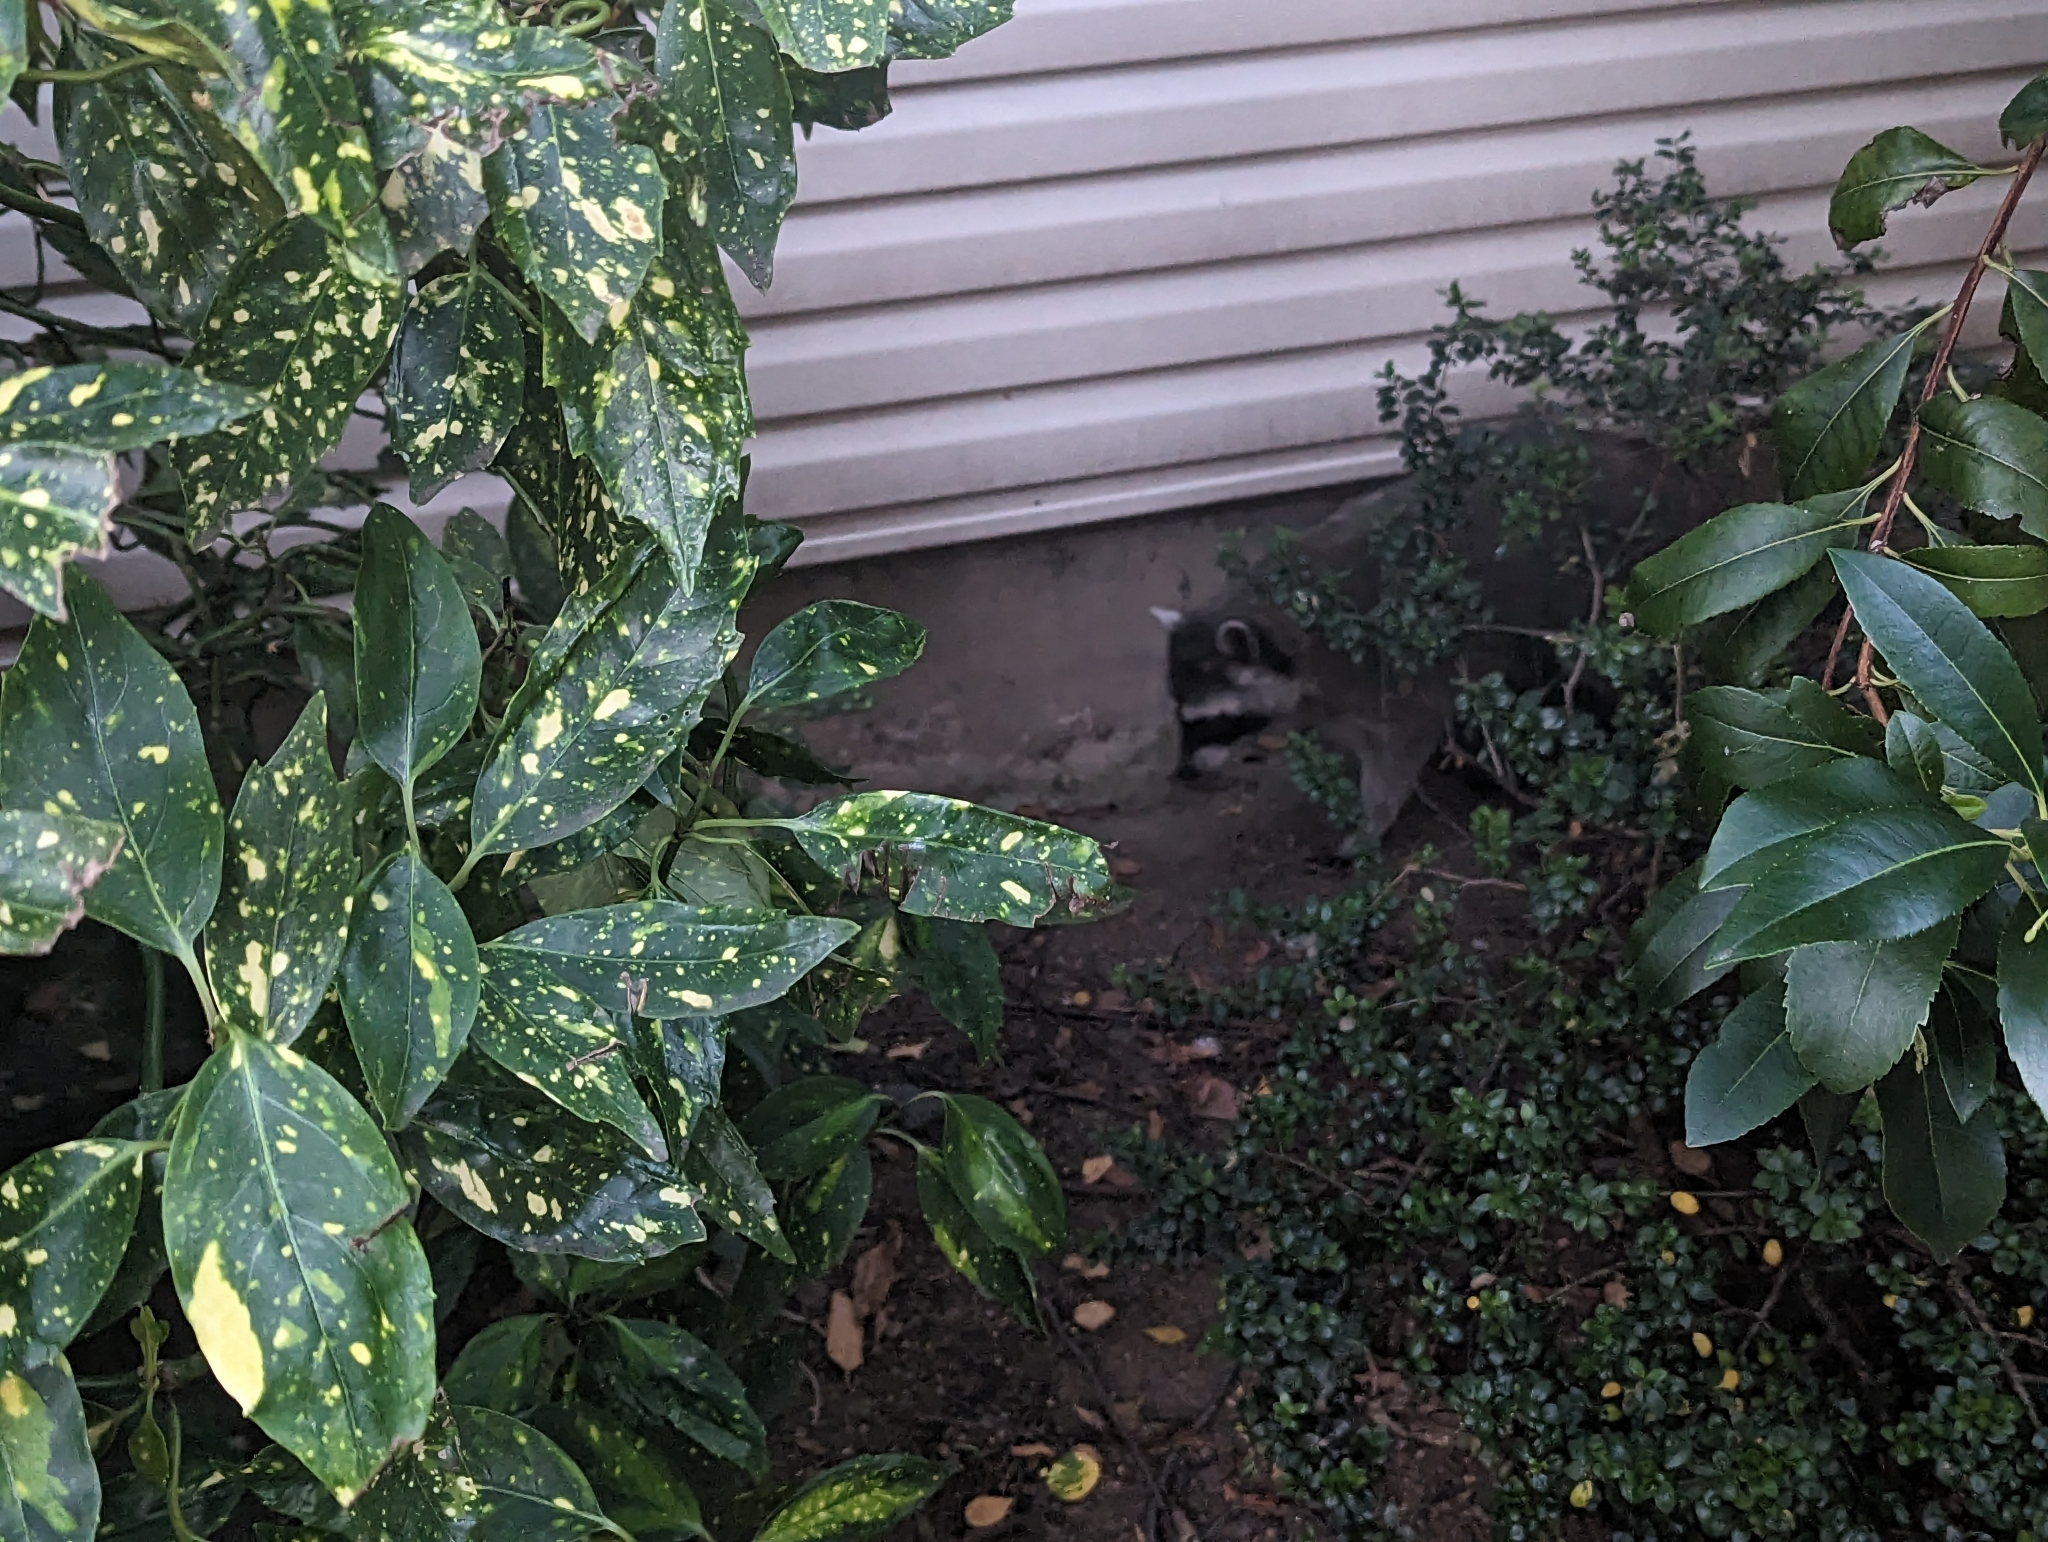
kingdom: Animalia
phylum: Chordata
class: Mammalia
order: Carnivora
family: Procyonidae
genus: Procyon
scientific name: Procyon lotor
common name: Raccoon
